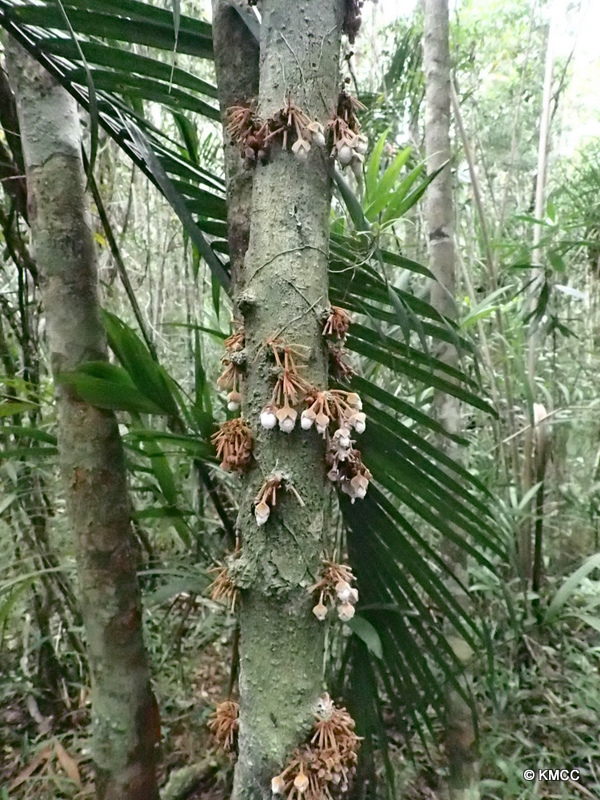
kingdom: Plantae
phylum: Tracheophyta
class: Magnoliopsida
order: Ericales
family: Ebenaceae
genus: Diospyros
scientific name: Diospyros velutipes
